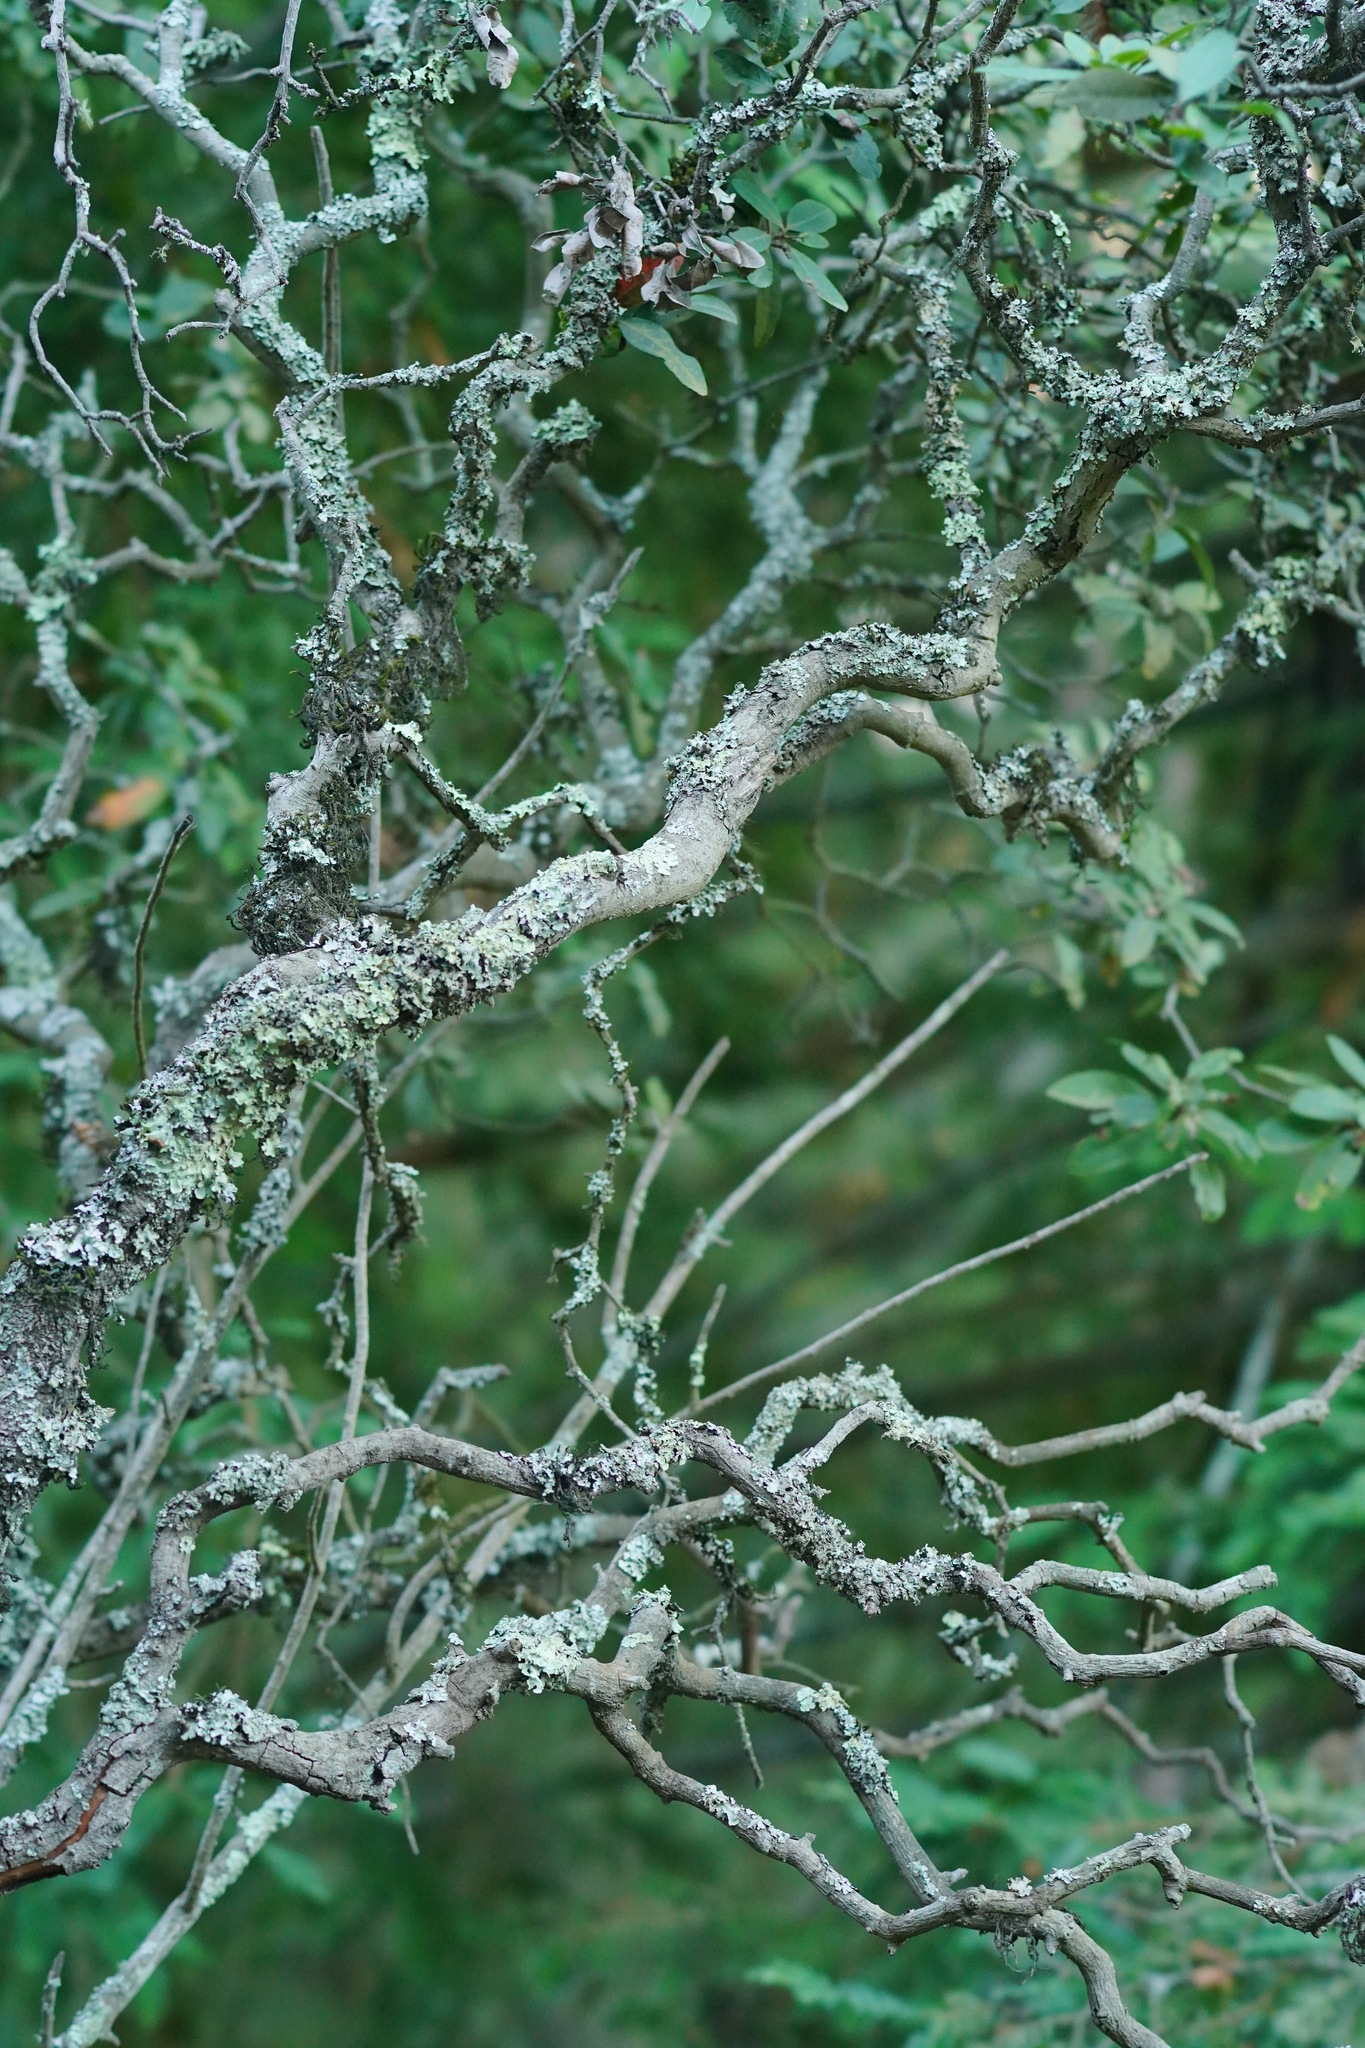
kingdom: Plantae
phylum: Tracheophyta
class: Magnoliopsida
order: Rosales
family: Rosaceae
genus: Heteromeles
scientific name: Heteromeles arbutifolia
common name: California-holly
